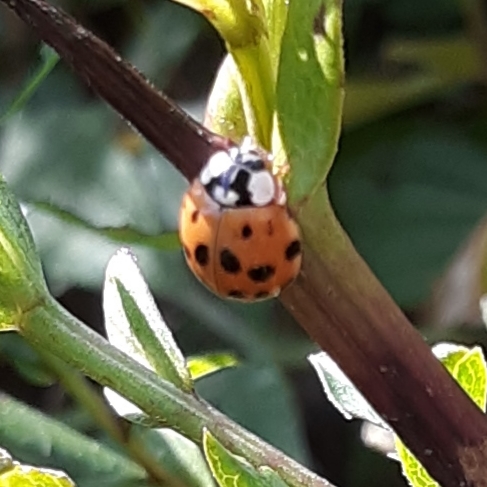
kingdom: Animalia
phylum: Arthropoda
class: Insecta
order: Coleoptera
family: Coccinellidae
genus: Harmonia
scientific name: Harmonia axyridis
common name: Harlequin ladybird
